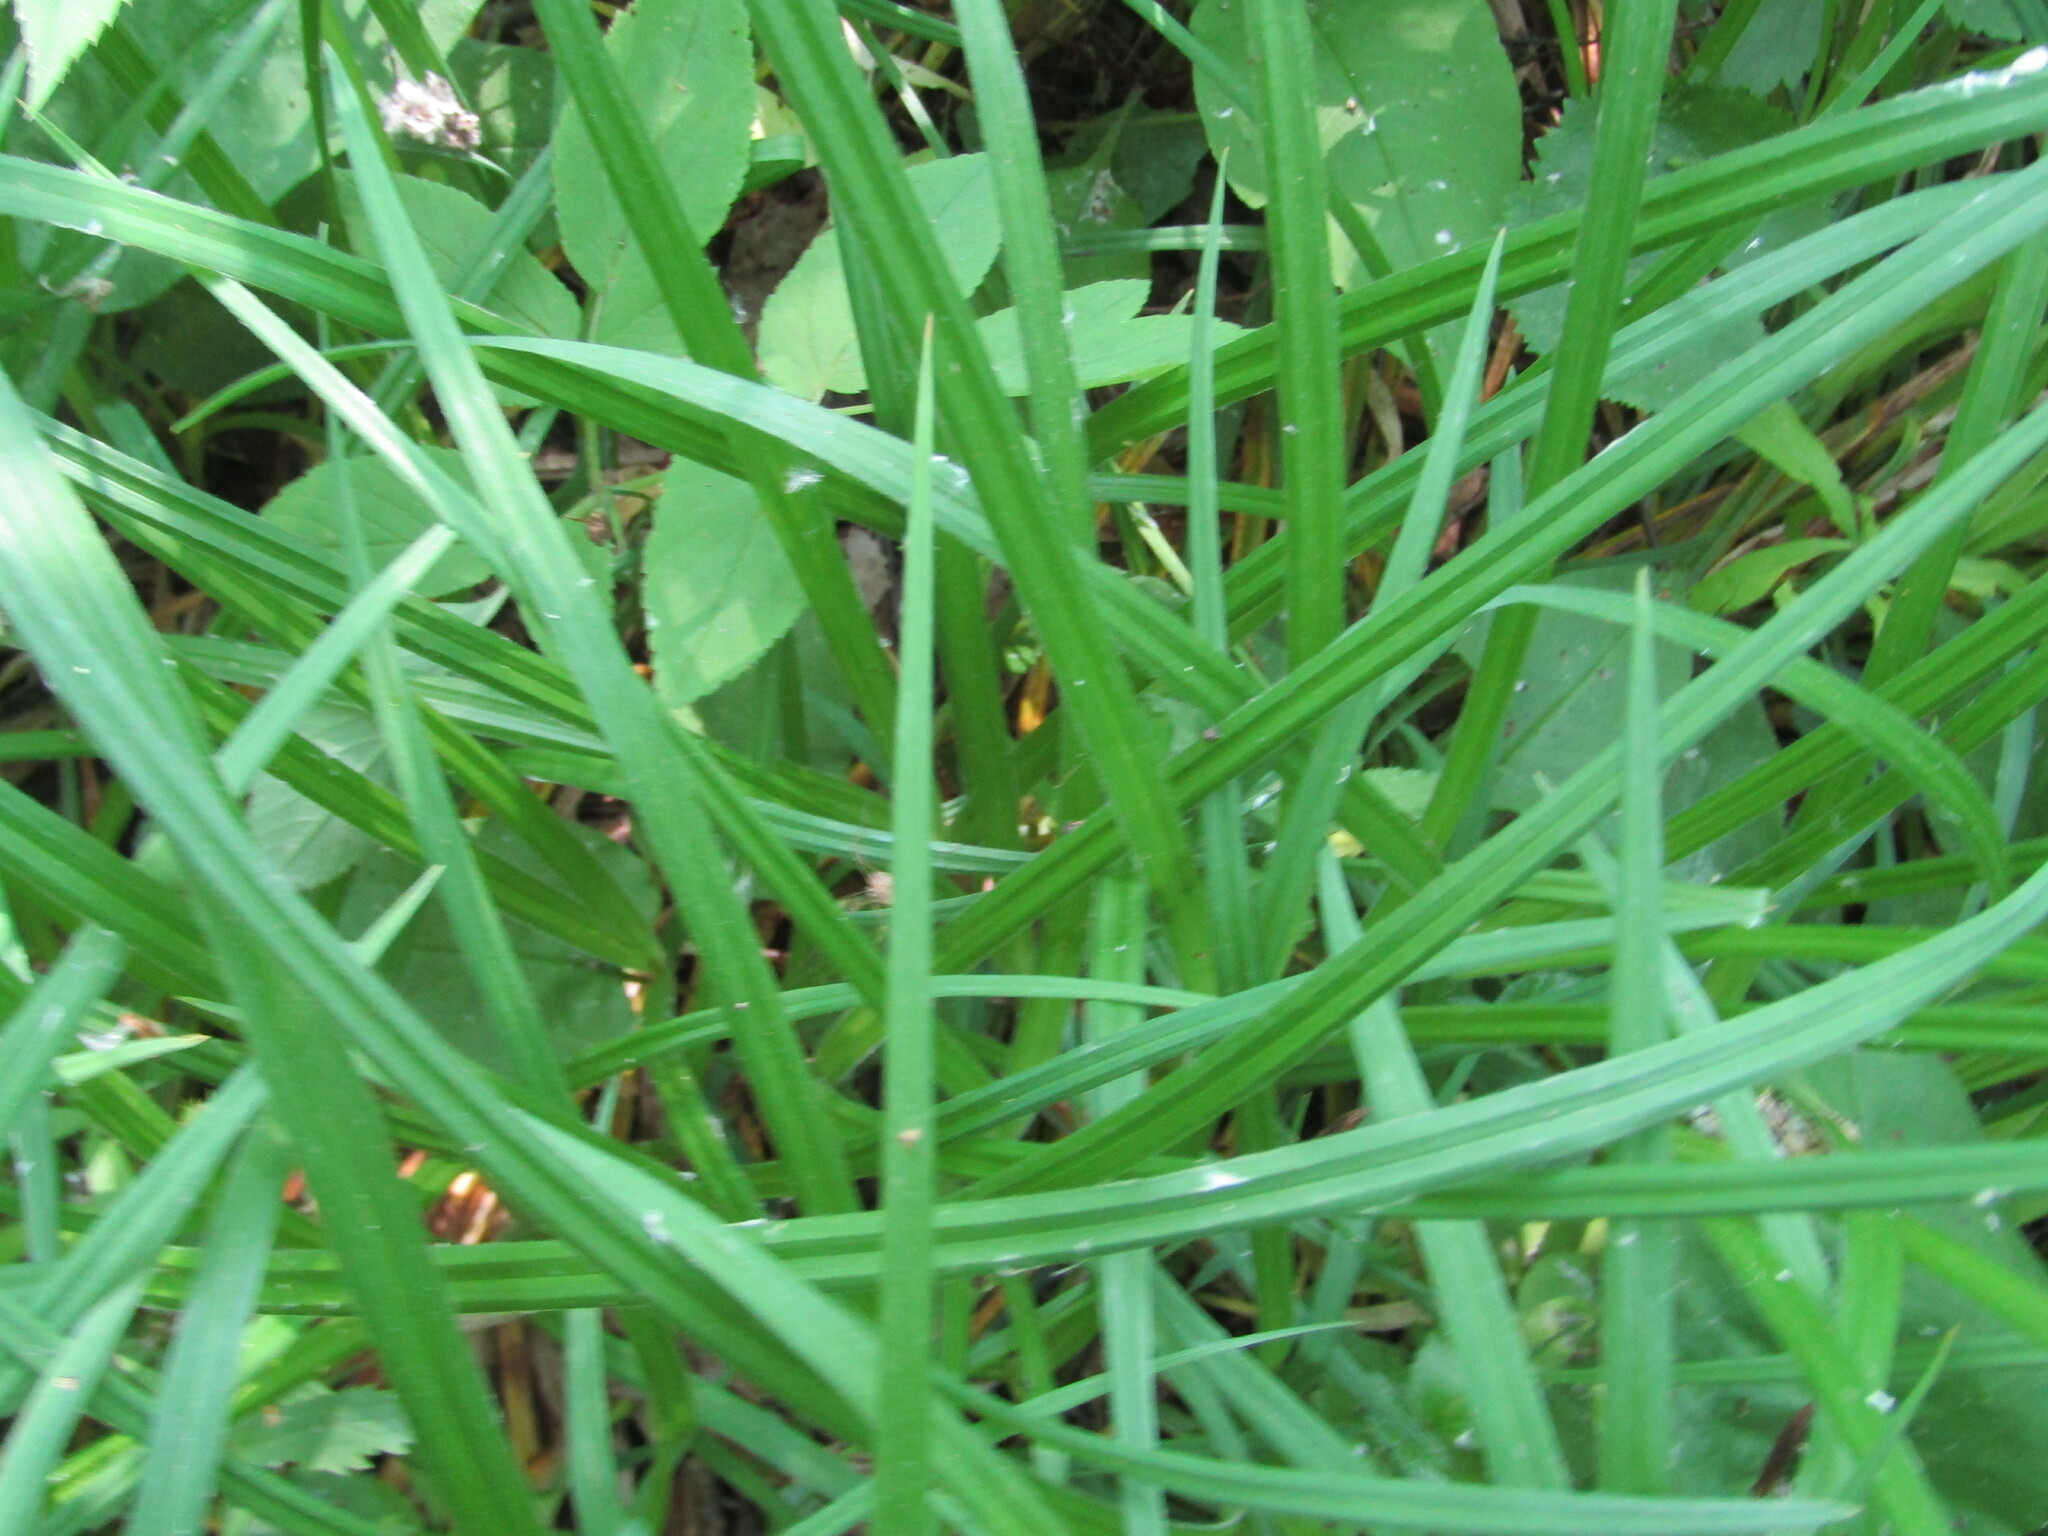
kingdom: Plantae
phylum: Tracheophyta
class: Liliopsida
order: Poales
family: Cyperaceae
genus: Carex
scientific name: Carex pilosa
